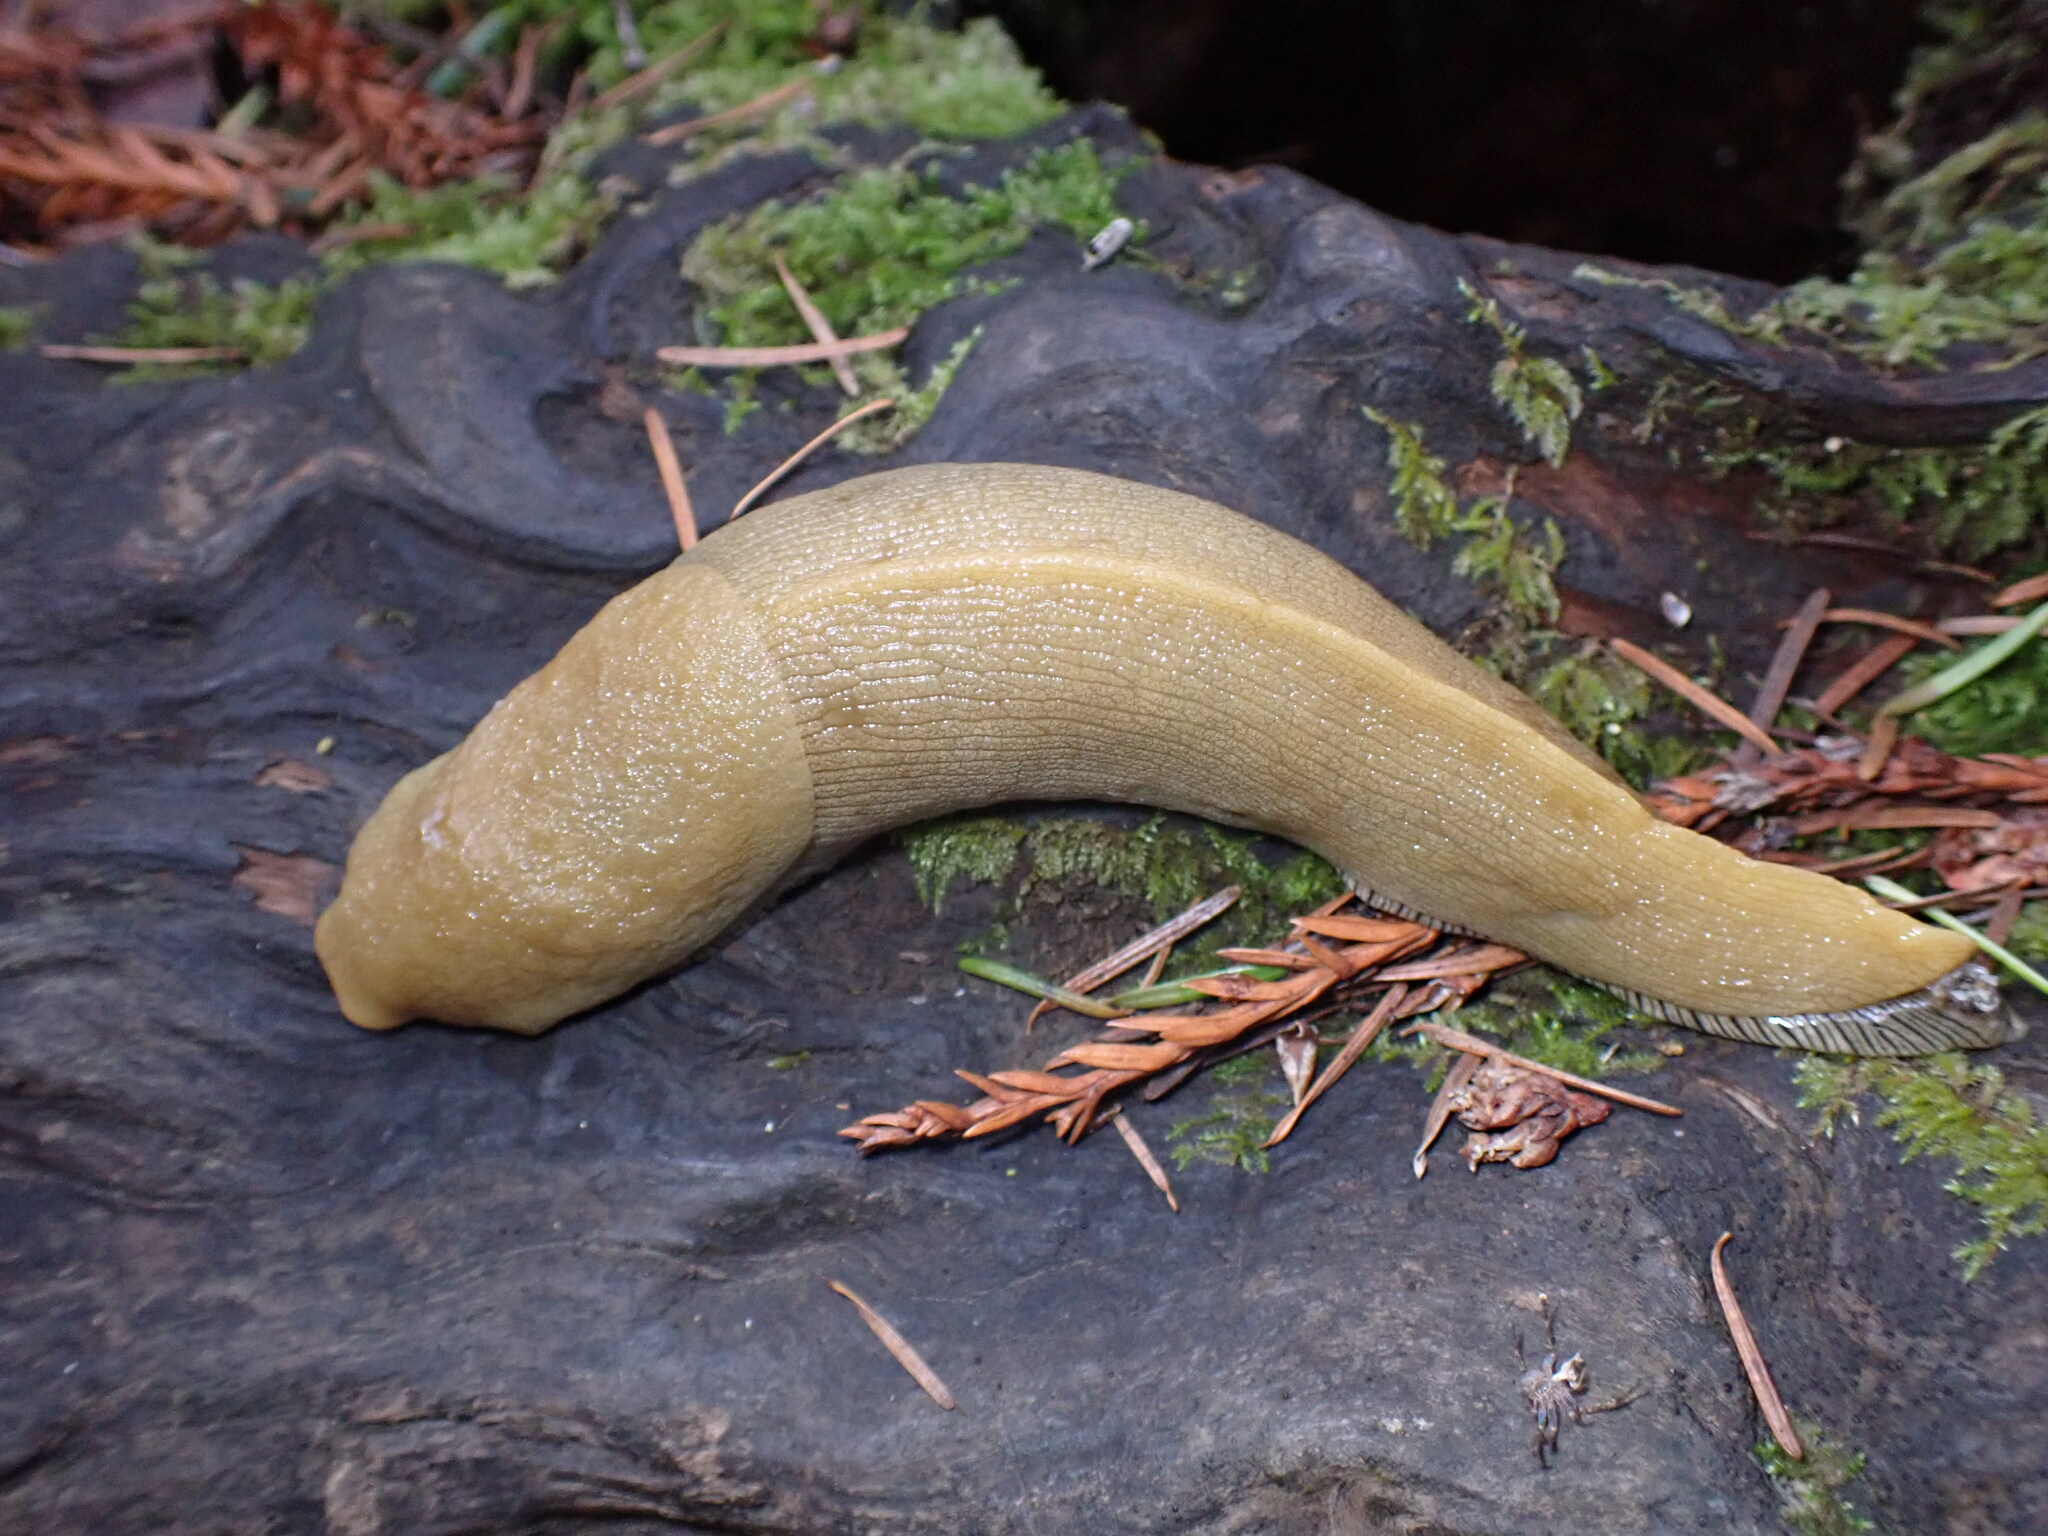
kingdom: Animalia
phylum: Mollusca
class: Gastropoda
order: Stylommatophora
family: Ariolimacidae
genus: Ariolimax
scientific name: Ariolimax buttoni
